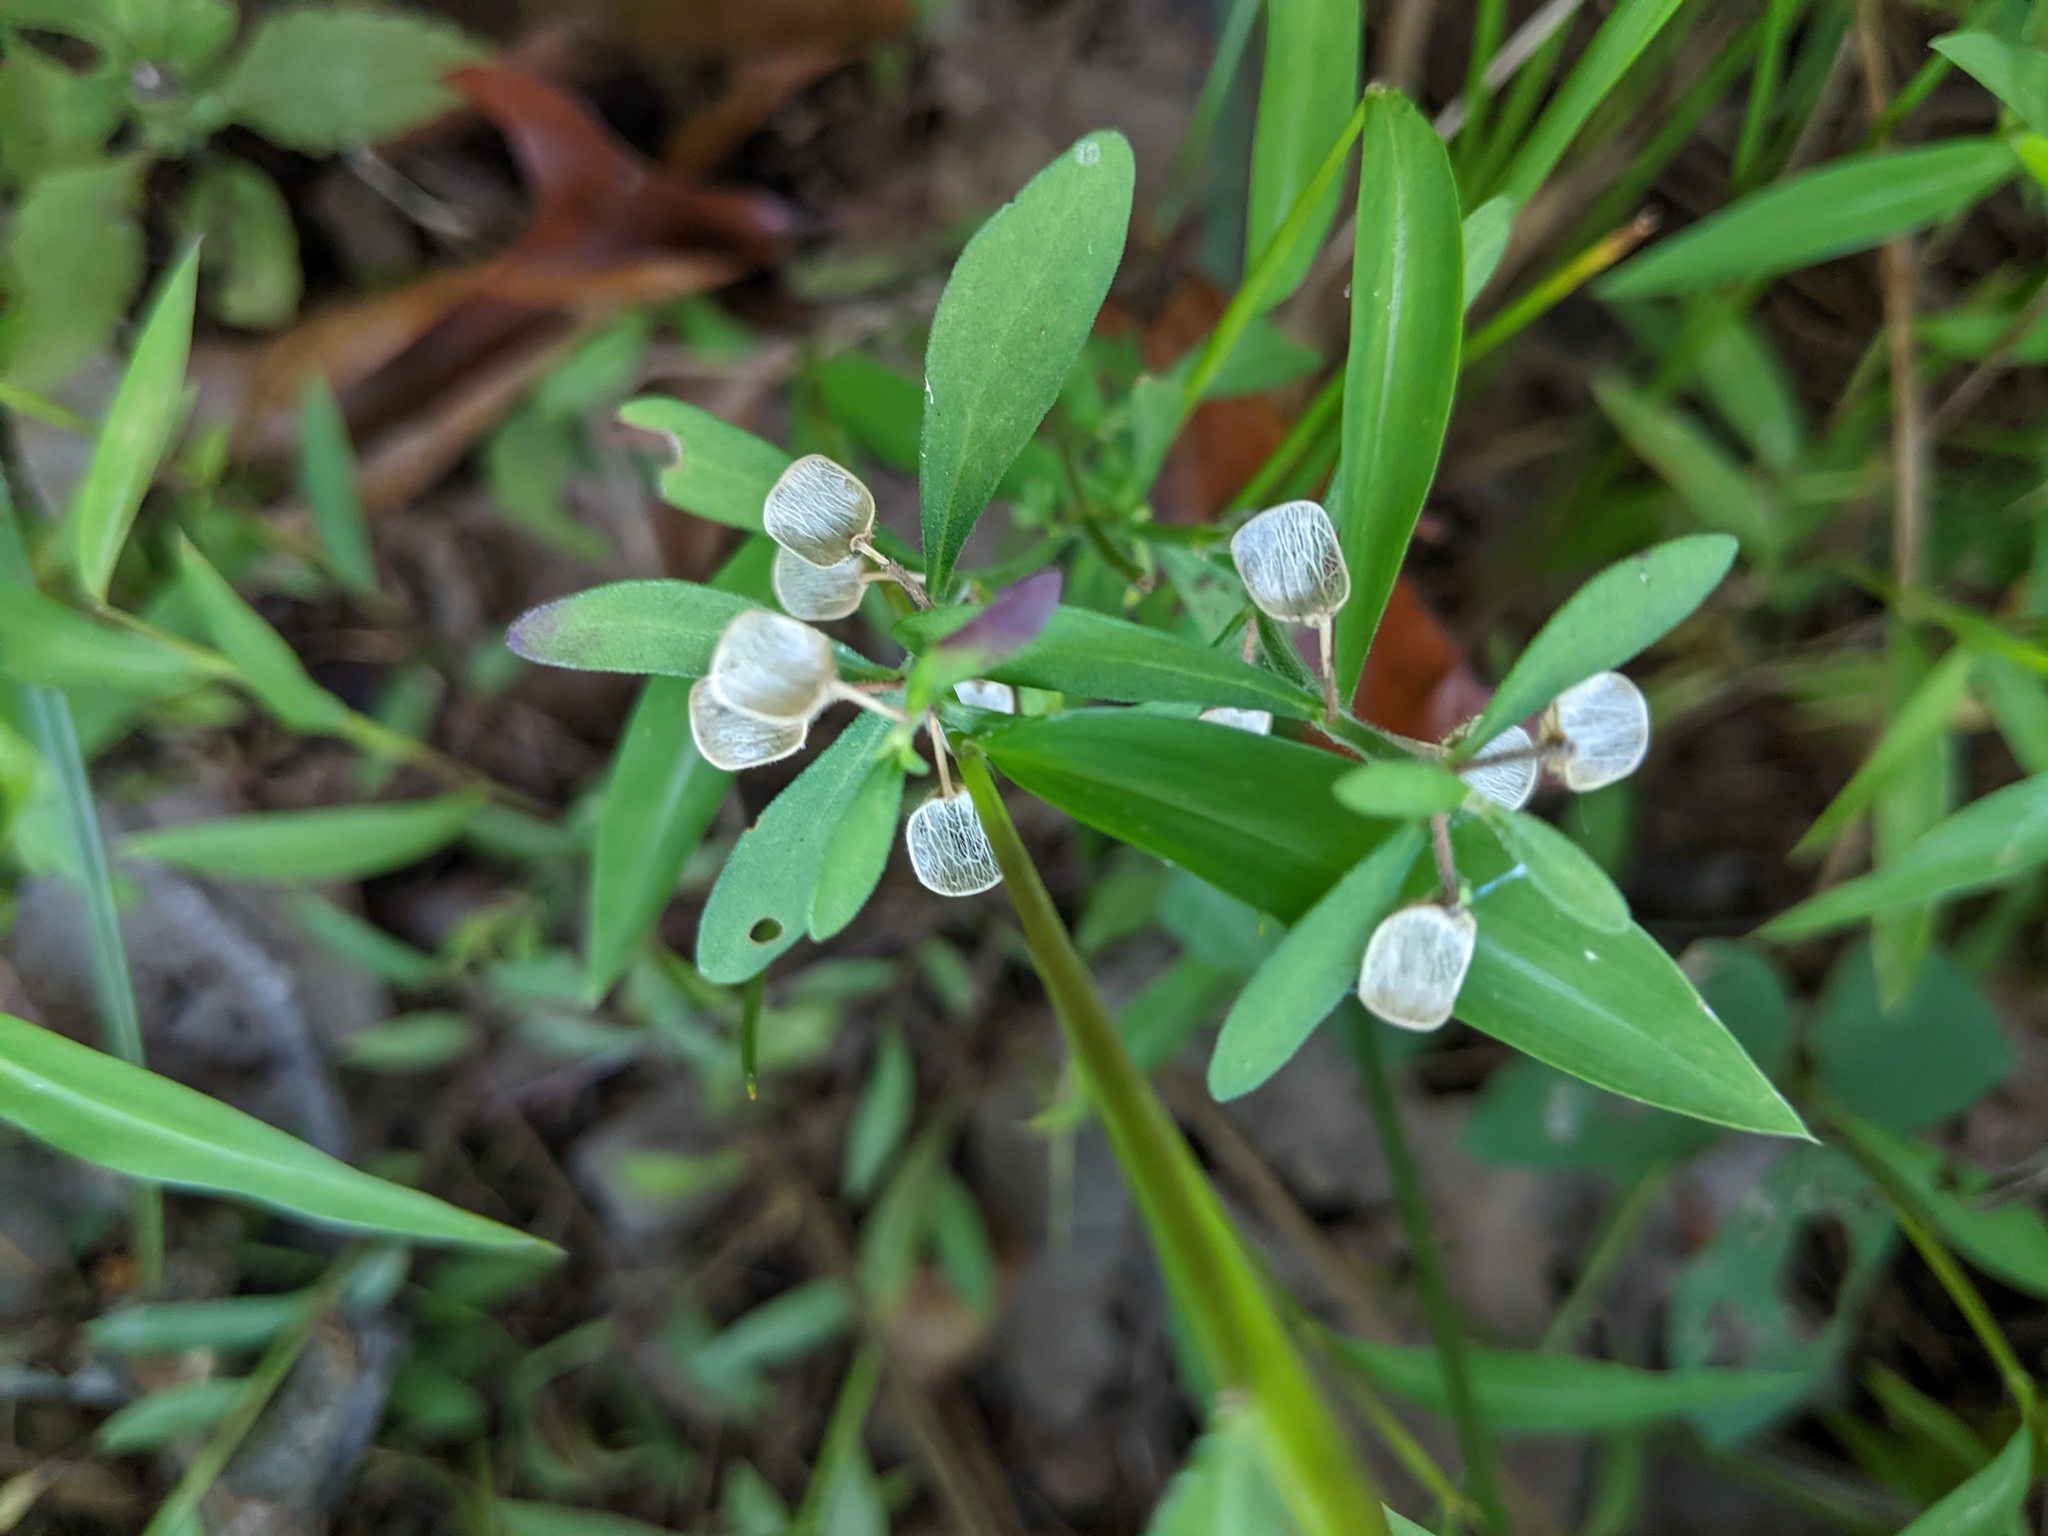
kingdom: Plantae
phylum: Tracheophyta
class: Magnoliopsida
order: Lamiales
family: Lamiaceae
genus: Scutellaria
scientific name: Scutellaria integrifolia
